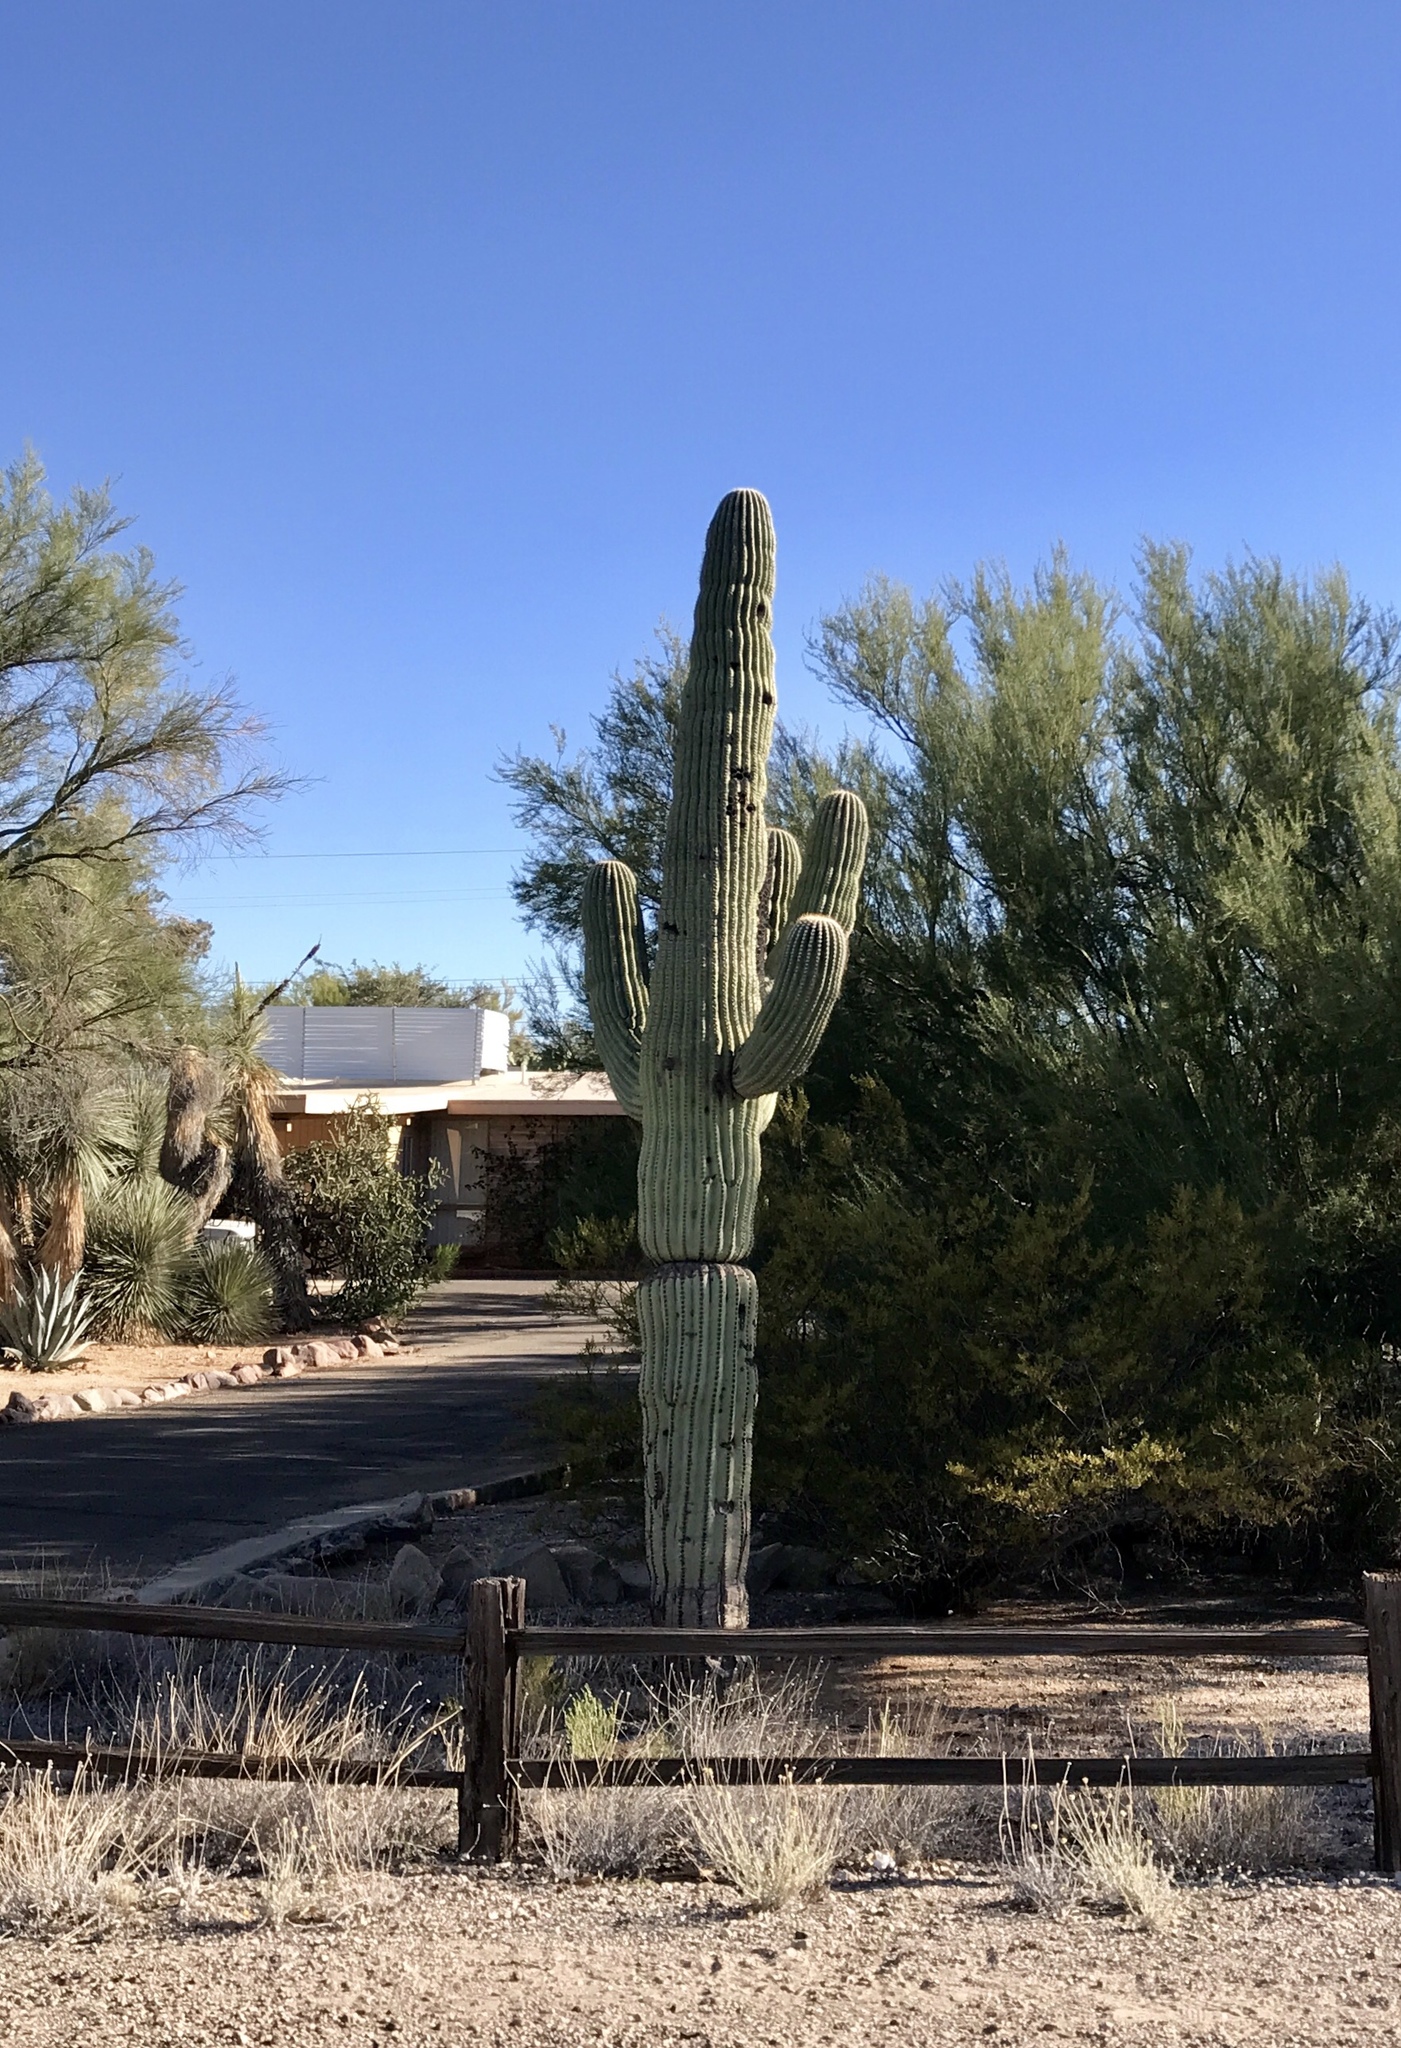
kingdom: Plantae
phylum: Tracheophyta
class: Magnoliopsida
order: Caryophyllales
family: Cactaceae
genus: Carnegiea
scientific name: Carnegiea gigantea
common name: Saguaro
